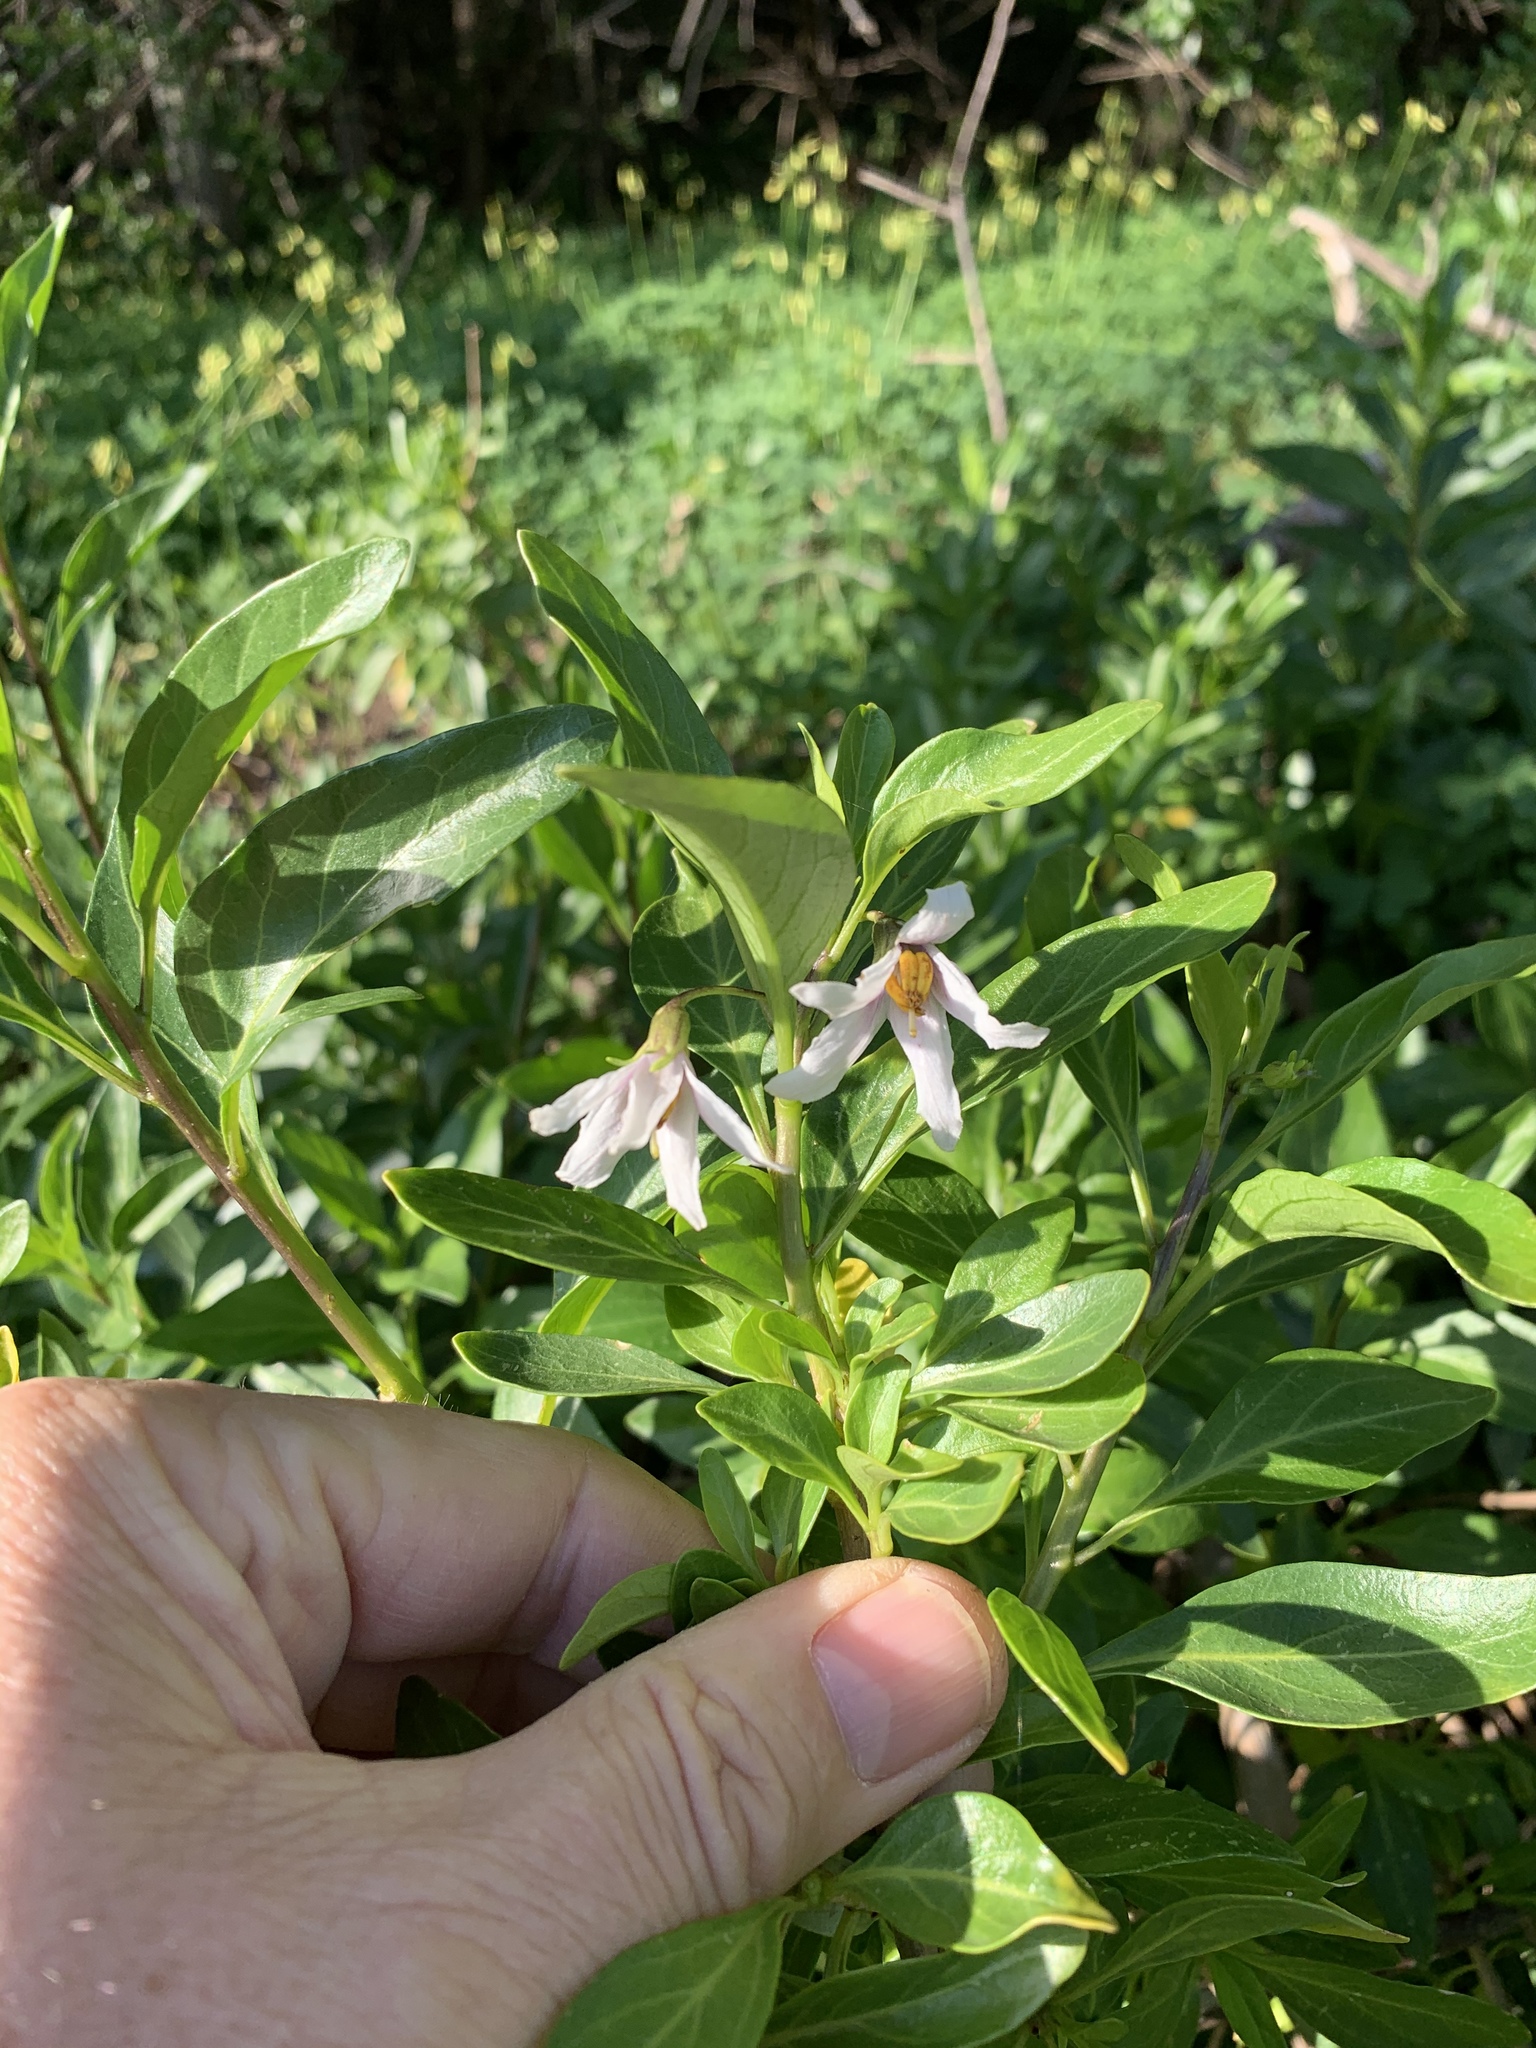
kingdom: Plantae
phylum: Tracheophyta
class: Magnoliopsida
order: Solanales
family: Solanaceae
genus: Solanum
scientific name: Solanum guineense
